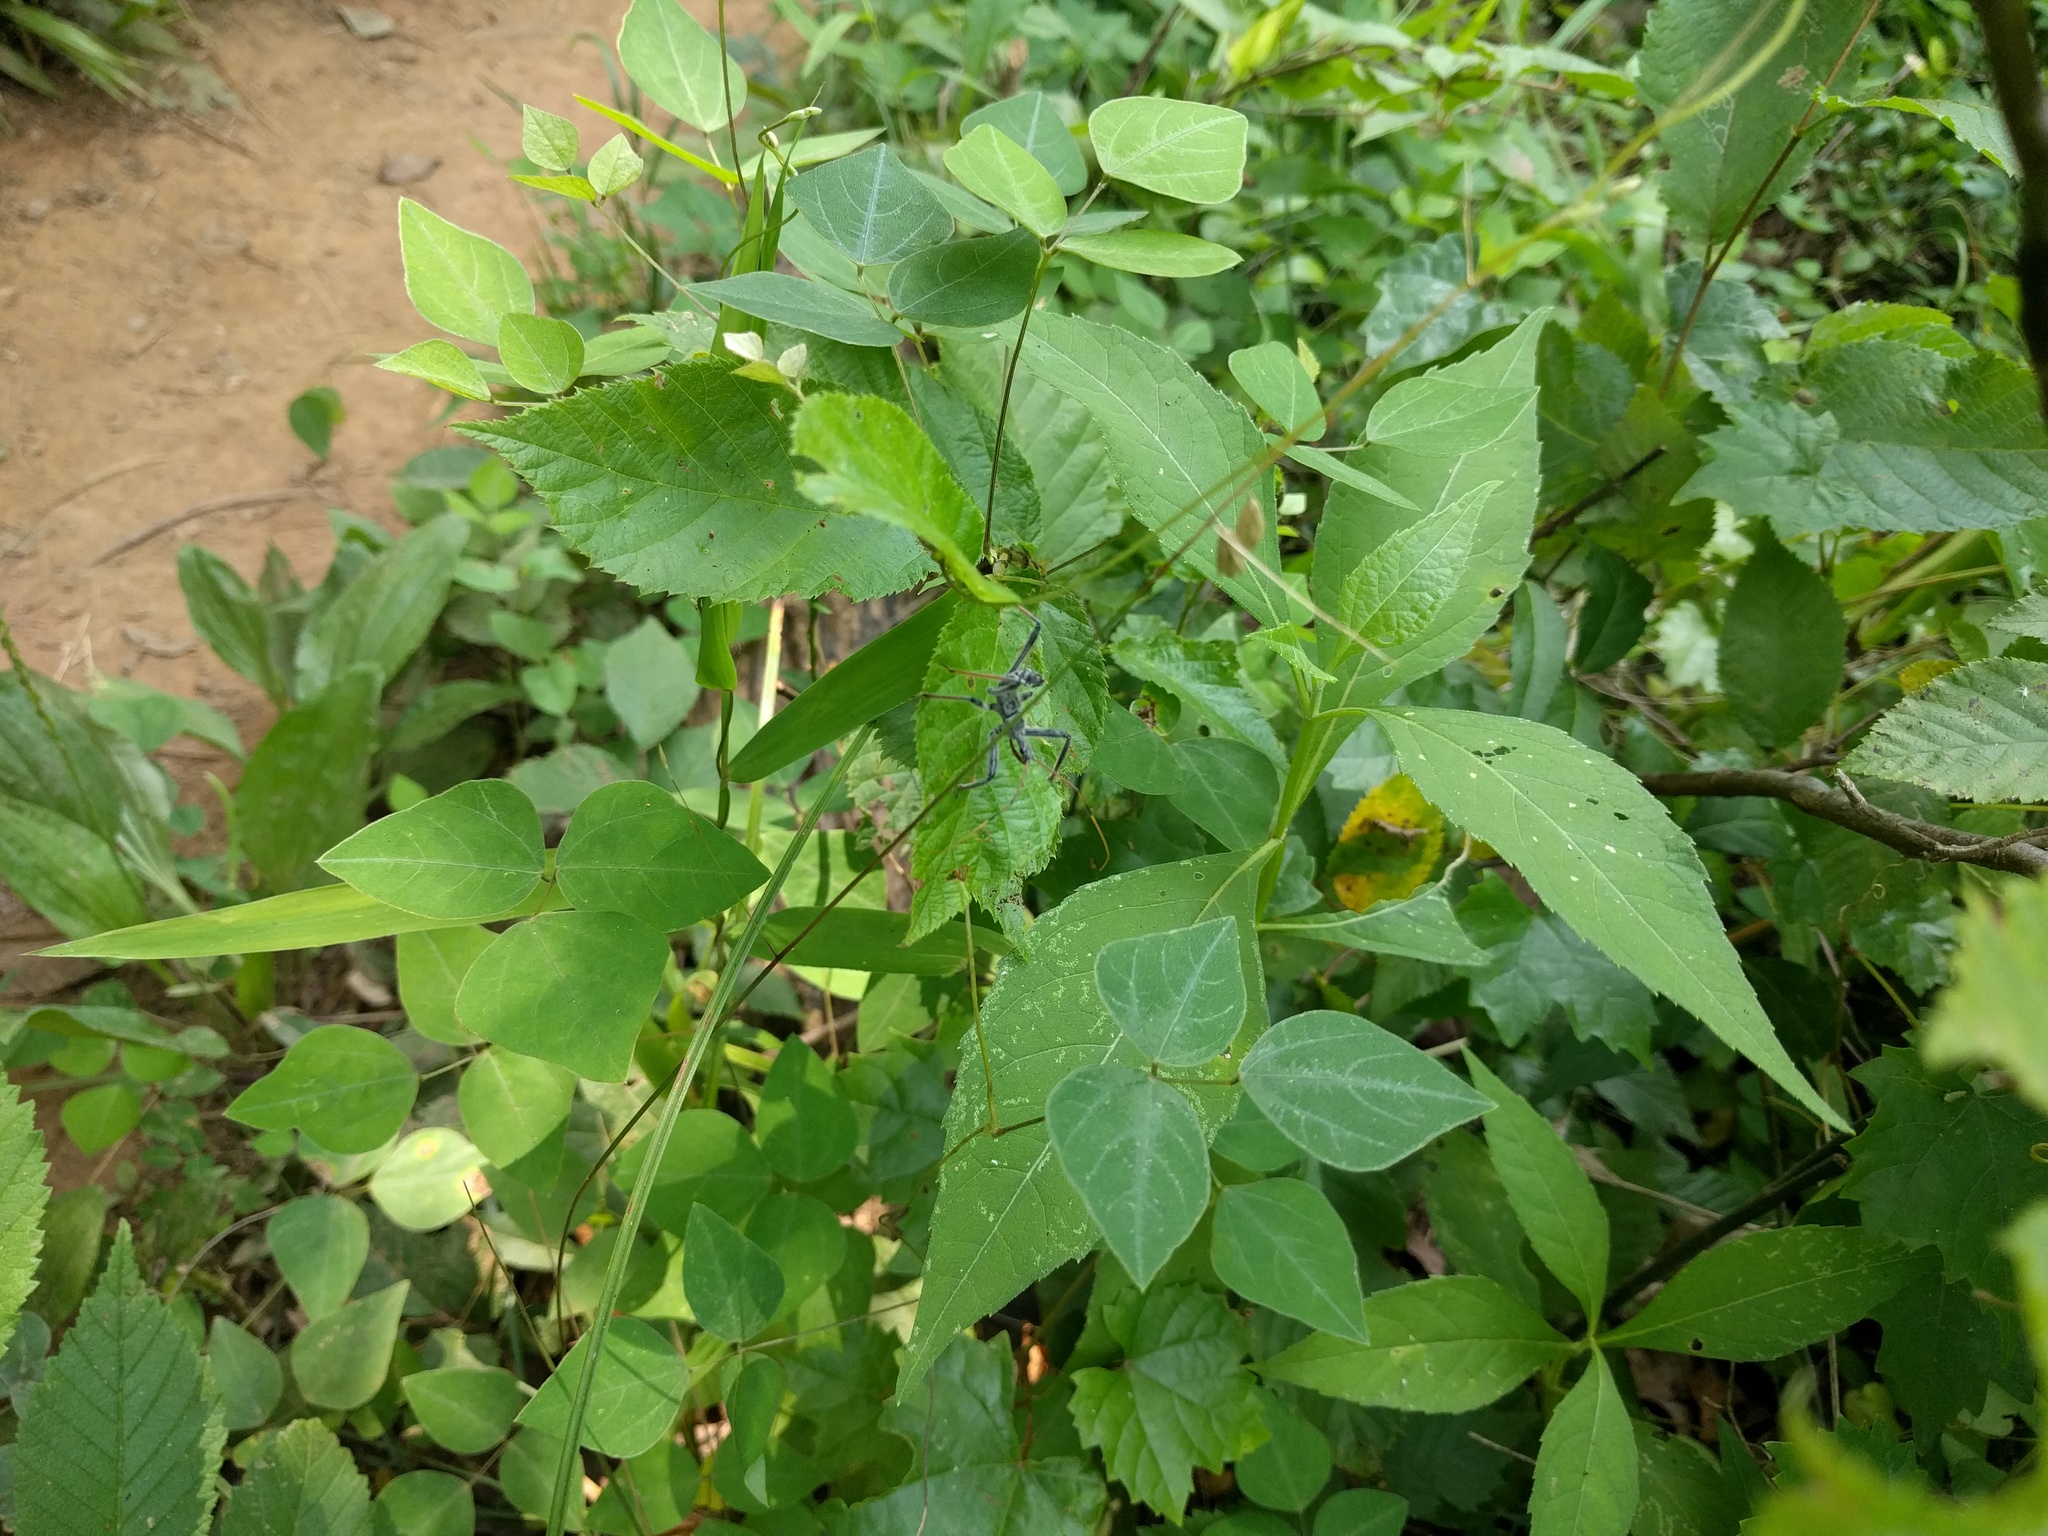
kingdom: Animalia
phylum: Arthropoda
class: Insecta
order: Hemiptera
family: Reduviidae
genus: Arilus
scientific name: Arilus cristatus
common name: North american wheel bug
